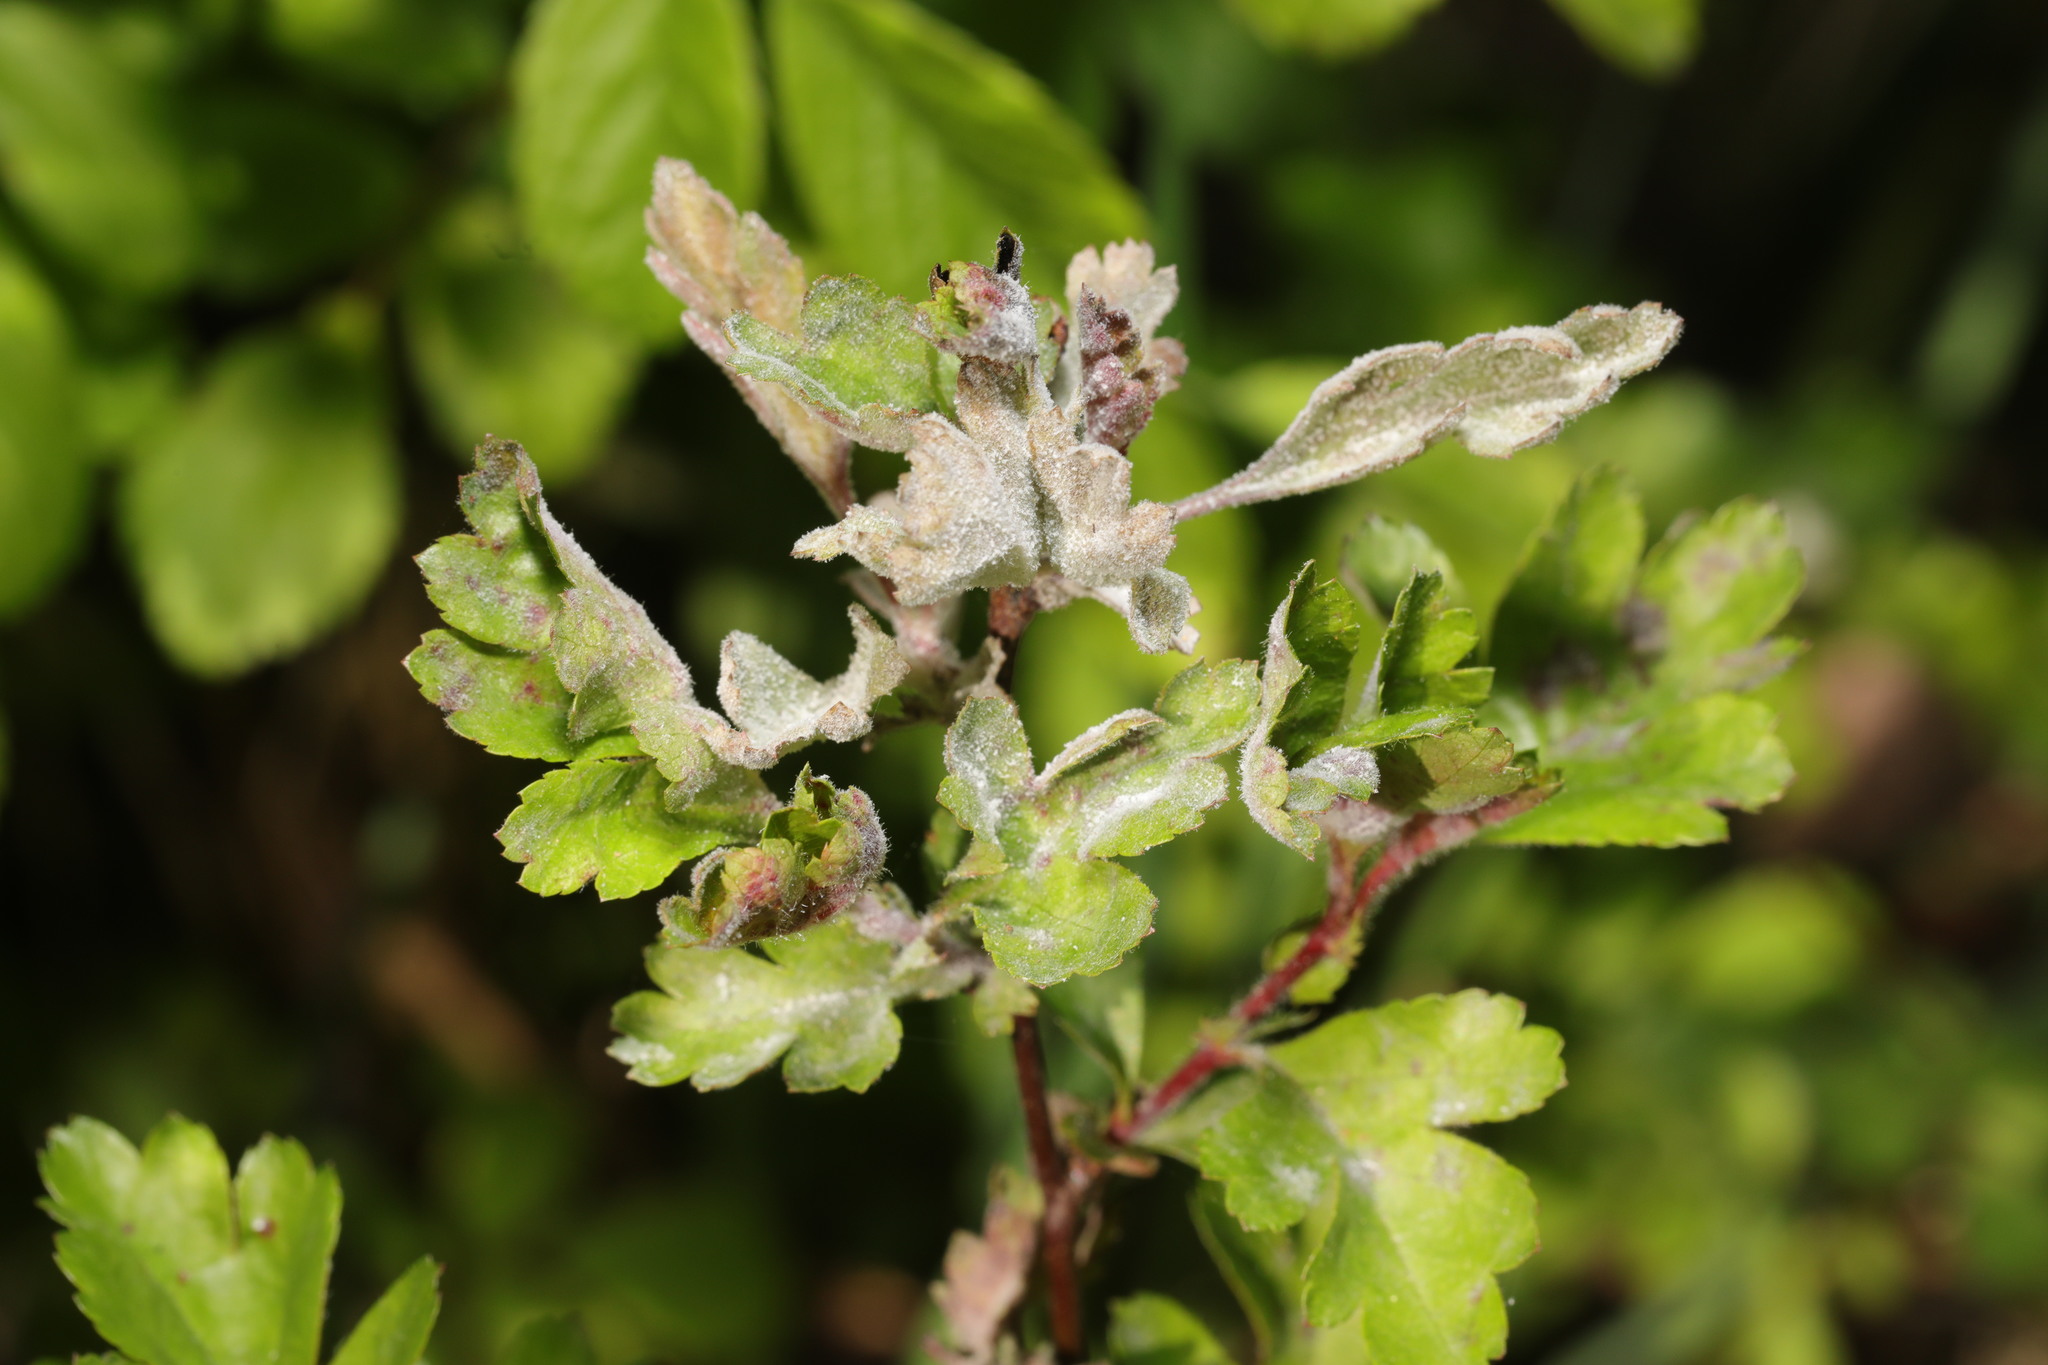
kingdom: Fungi
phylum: Ascomycota
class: Leotiomycetes
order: Helotiales
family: Erysiphaceae
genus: Podosphaera
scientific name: Podosphaera clandestina
